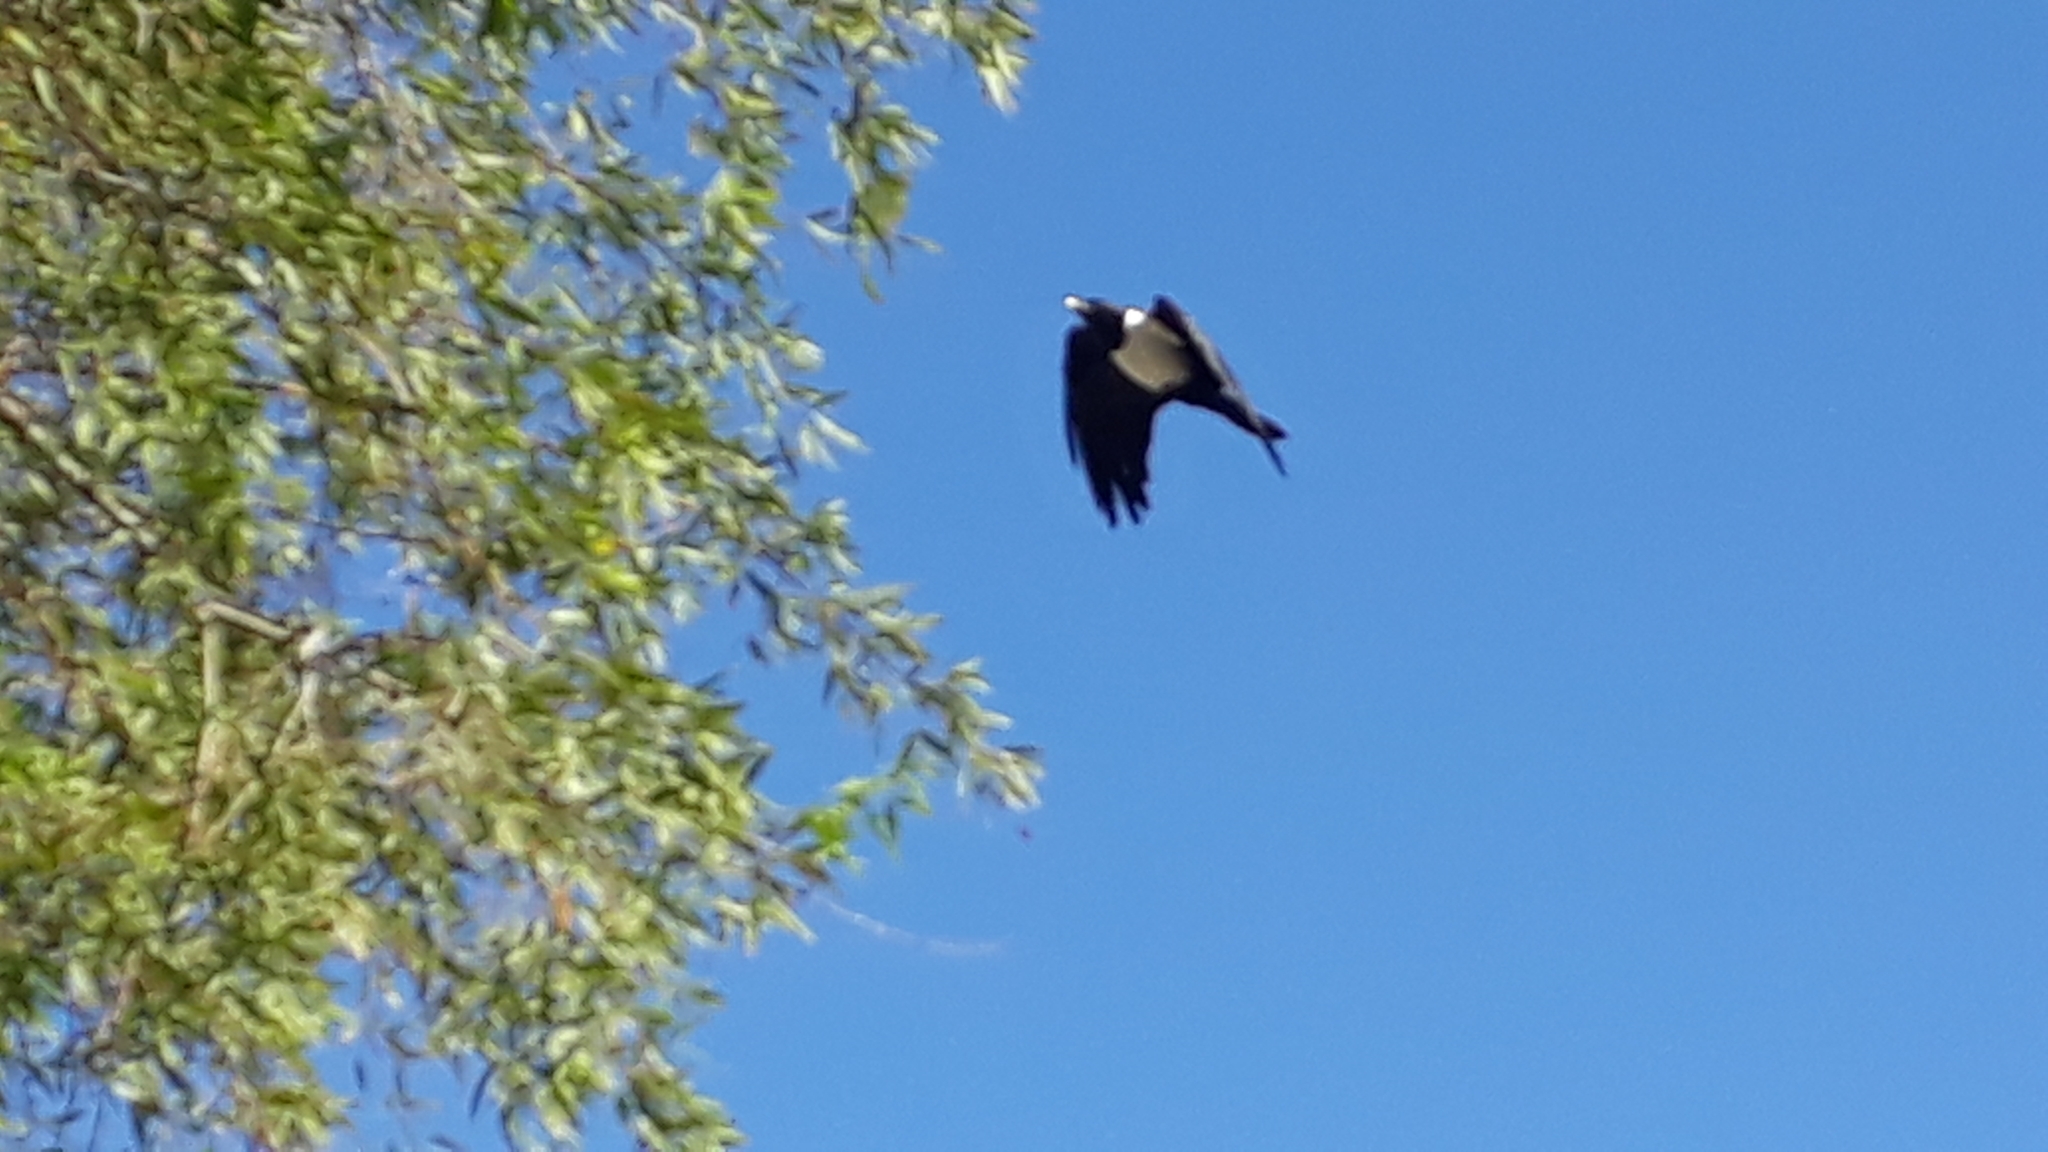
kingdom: Animalia
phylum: Chordata
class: Aves
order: Passeriformes
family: Corvidae
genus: Corvus
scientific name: Corvus albus
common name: Pied crow
